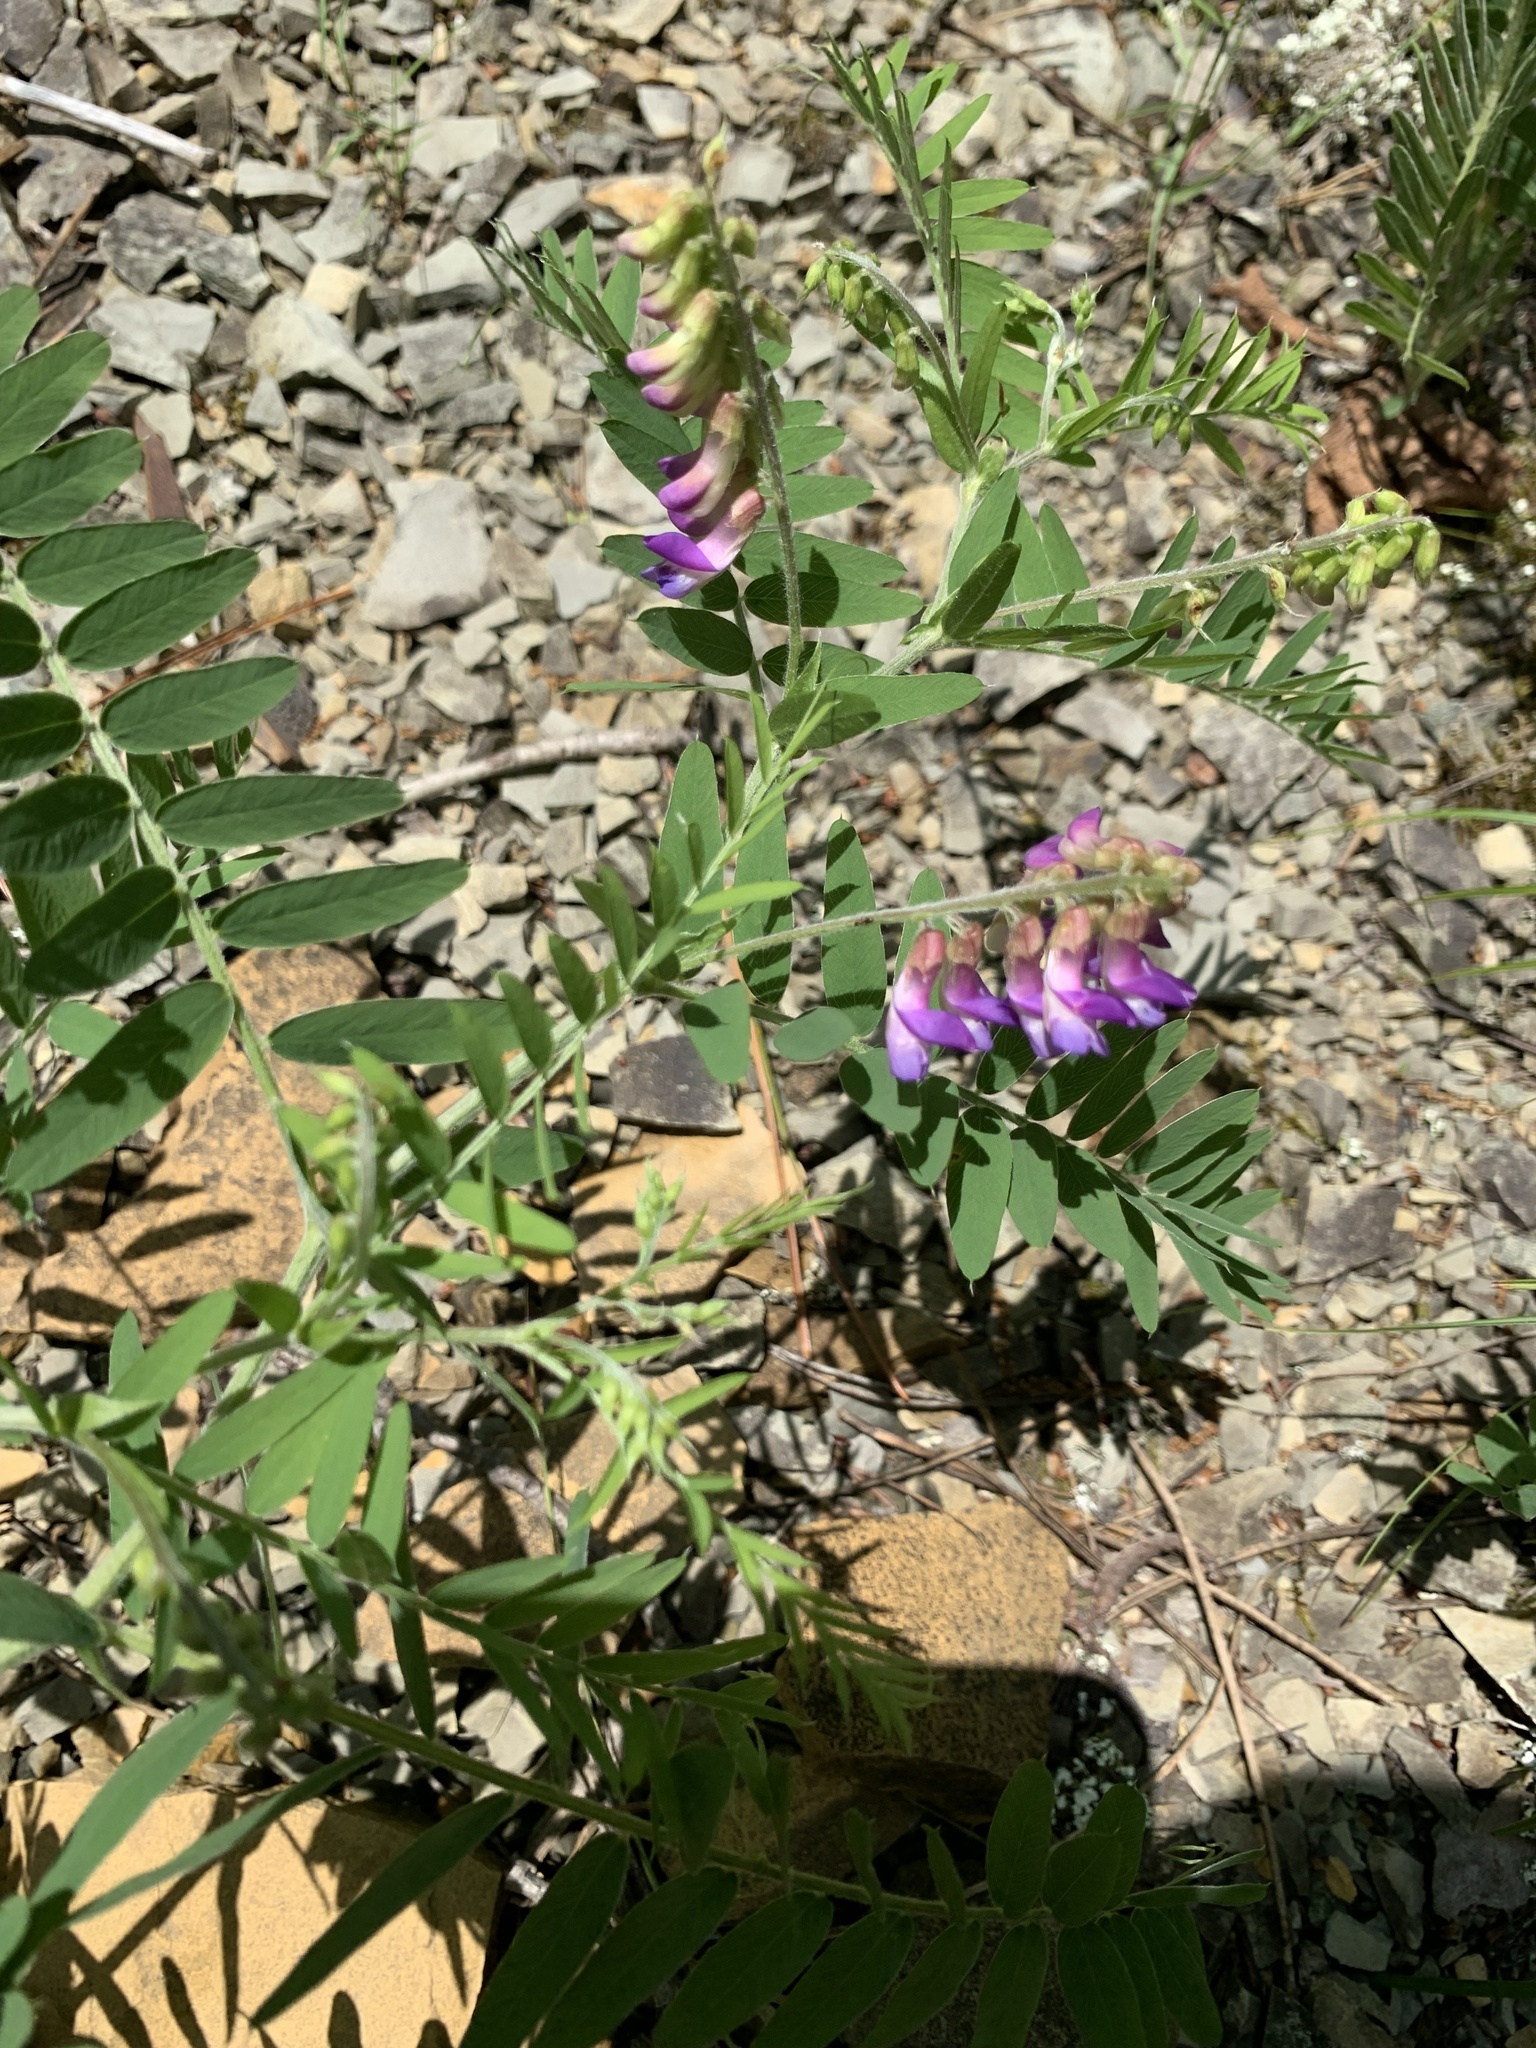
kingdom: Plantae
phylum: Tracheophyta
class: Magnoliopsida
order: Fabales
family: Fabaceae
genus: Vicia
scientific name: Vicia cassubica
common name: Danzig vetch
